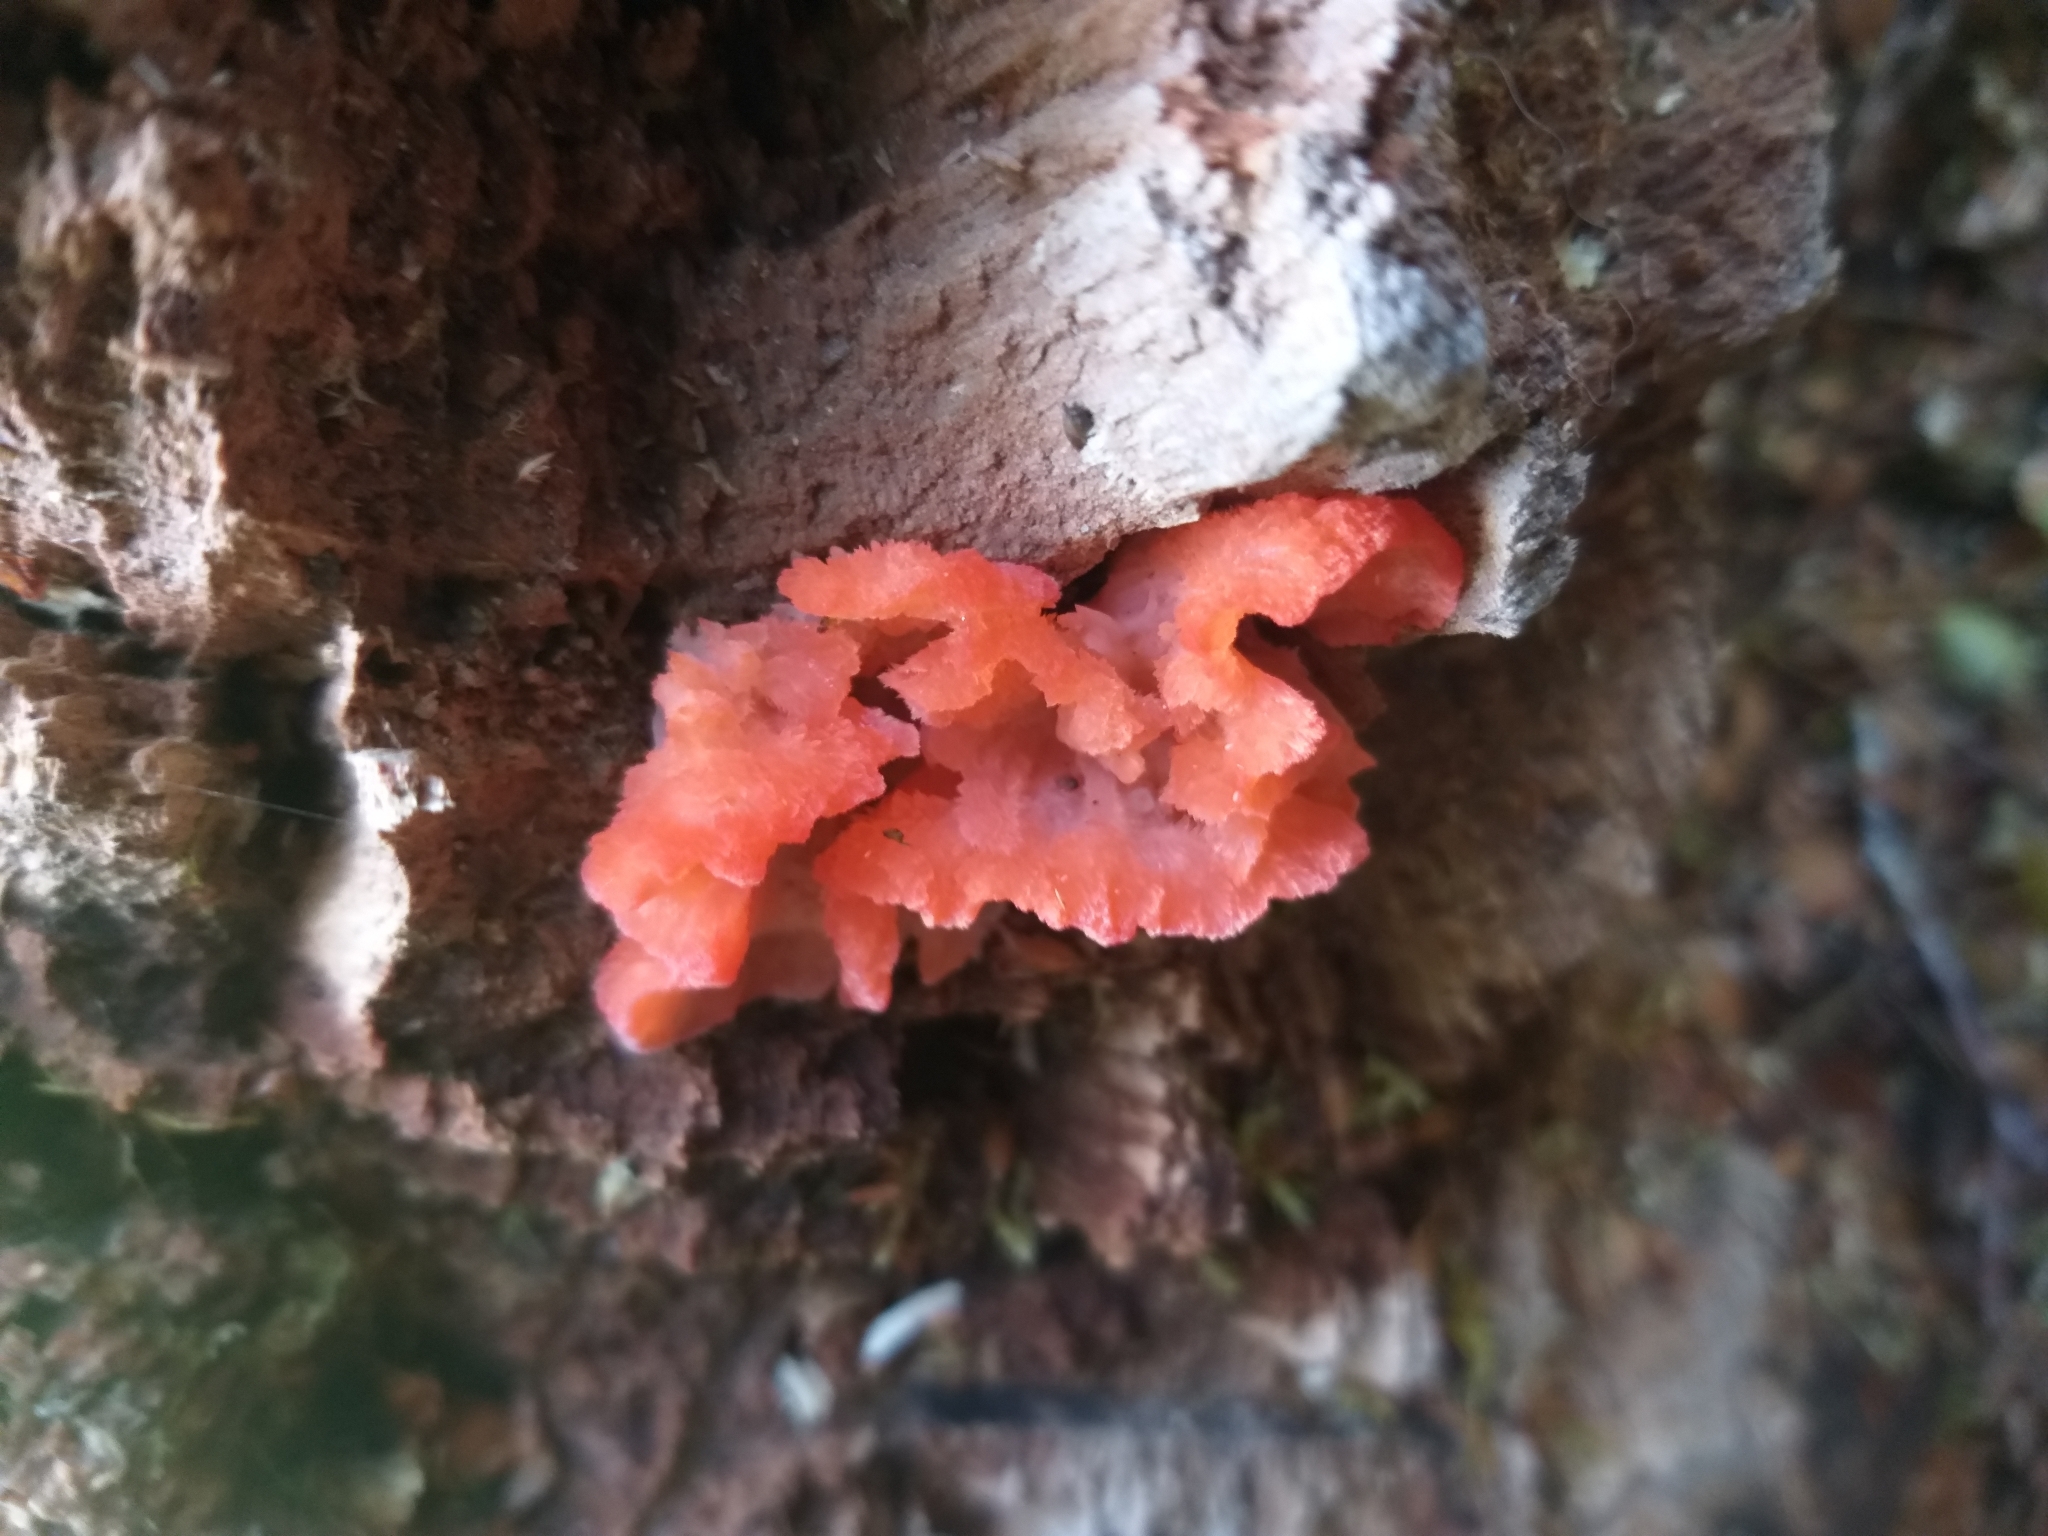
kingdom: Fungi
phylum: Basidiomycota
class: Agaricomycetes
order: Polyporales
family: Incrustoporiaceae
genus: Tyromyces
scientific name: Tyromyces pulcherrimus
